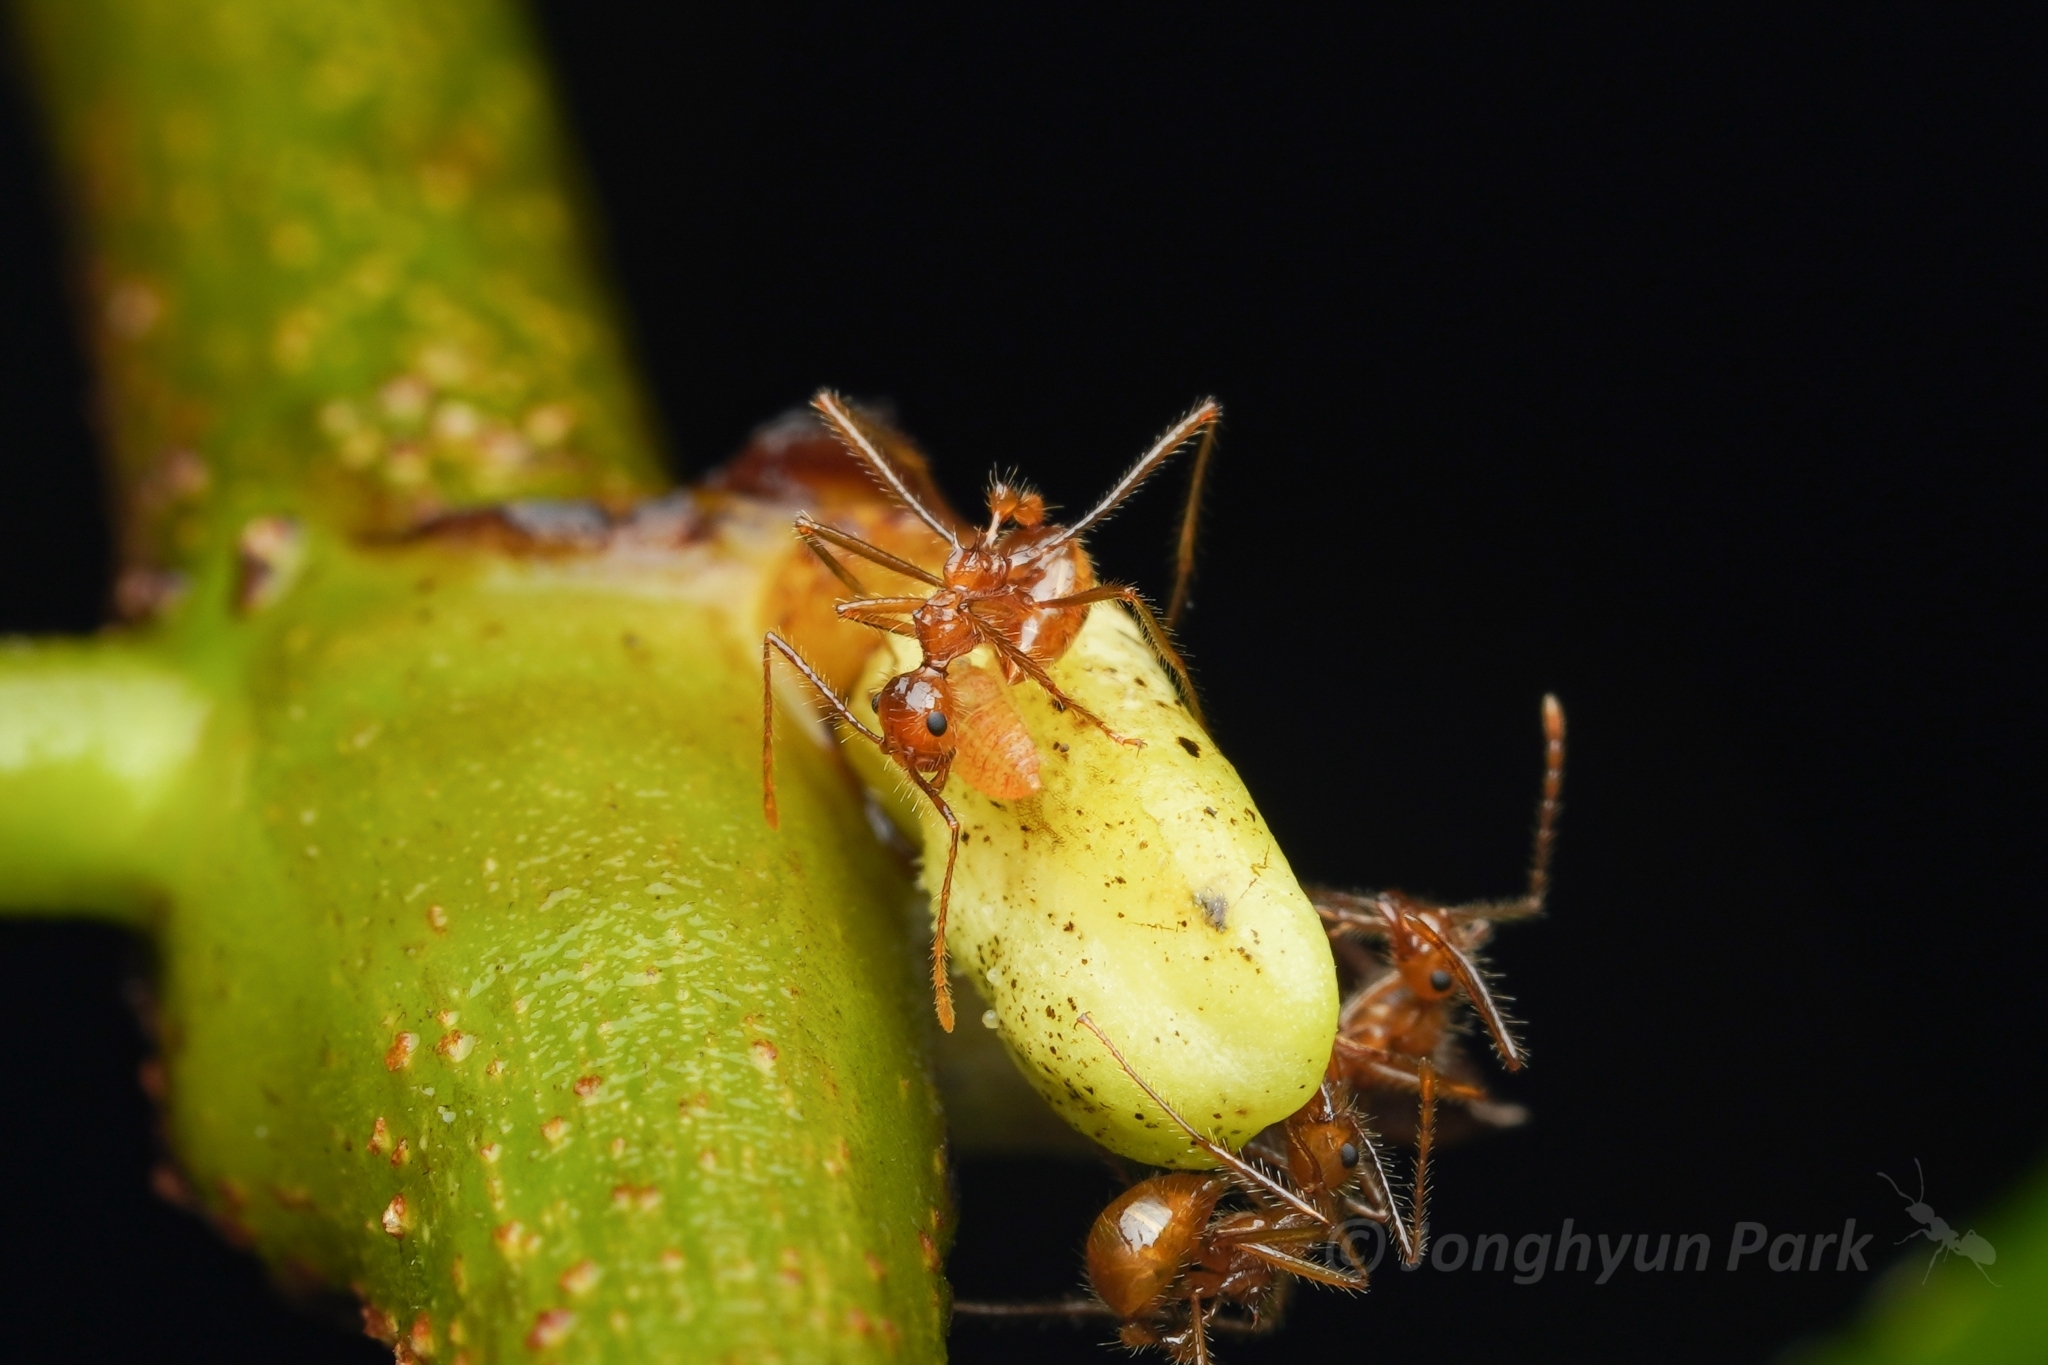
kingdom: Animalia
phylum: Arthropoda
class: Insecta
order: Hymenoptera
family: Formicidae
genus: Myrmicaria
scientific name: Myrmicaria
